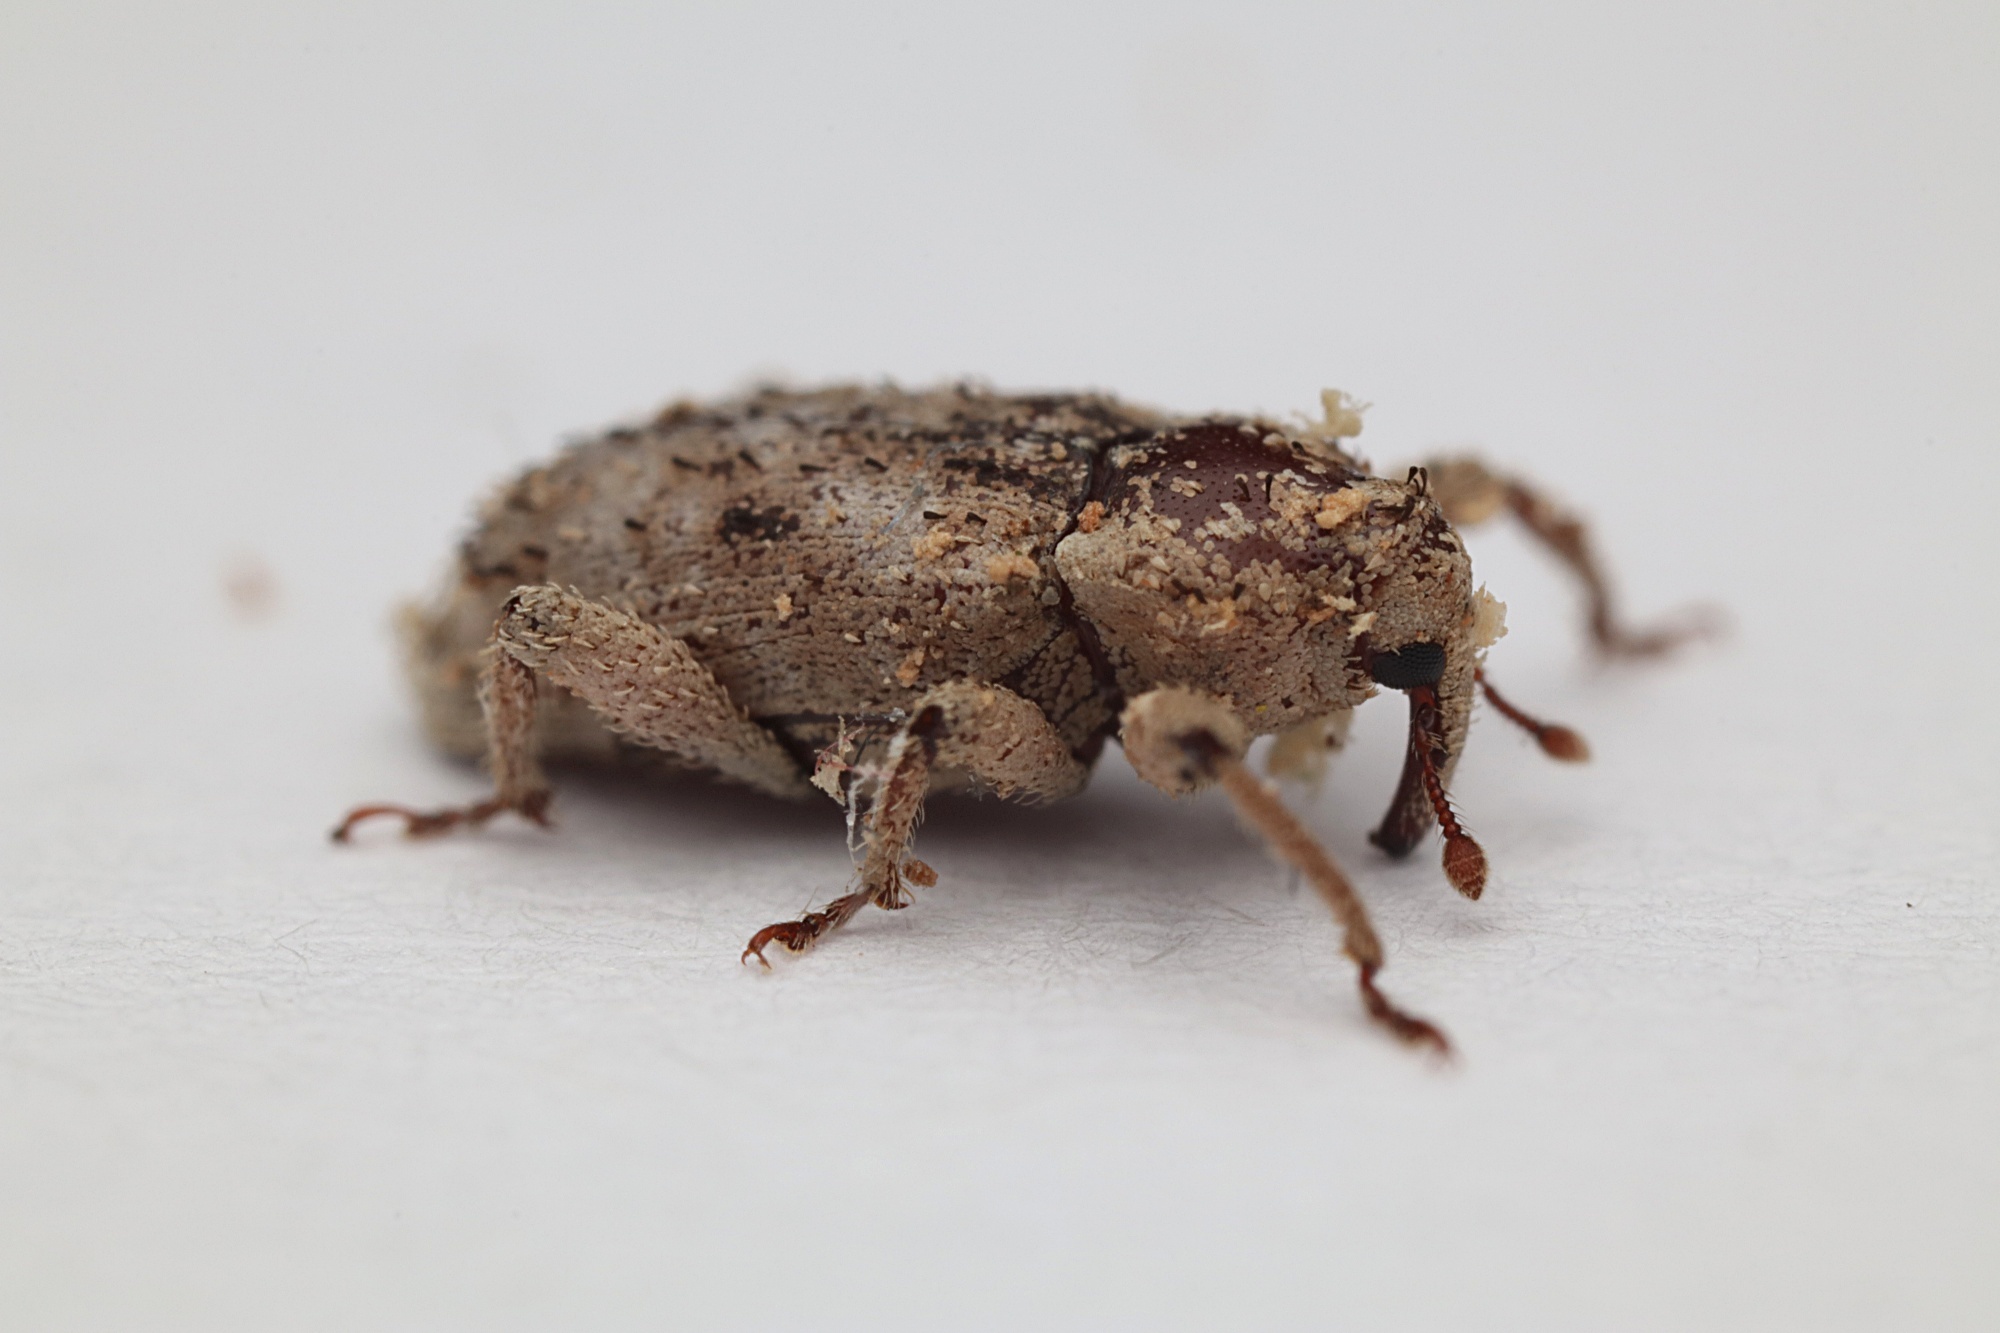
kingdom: Animalia
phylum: Arthropoda
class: Insecta
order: Coleoptera
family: Curculionidae
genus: Mitrastethus
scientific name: Mitrastethus baridioides
